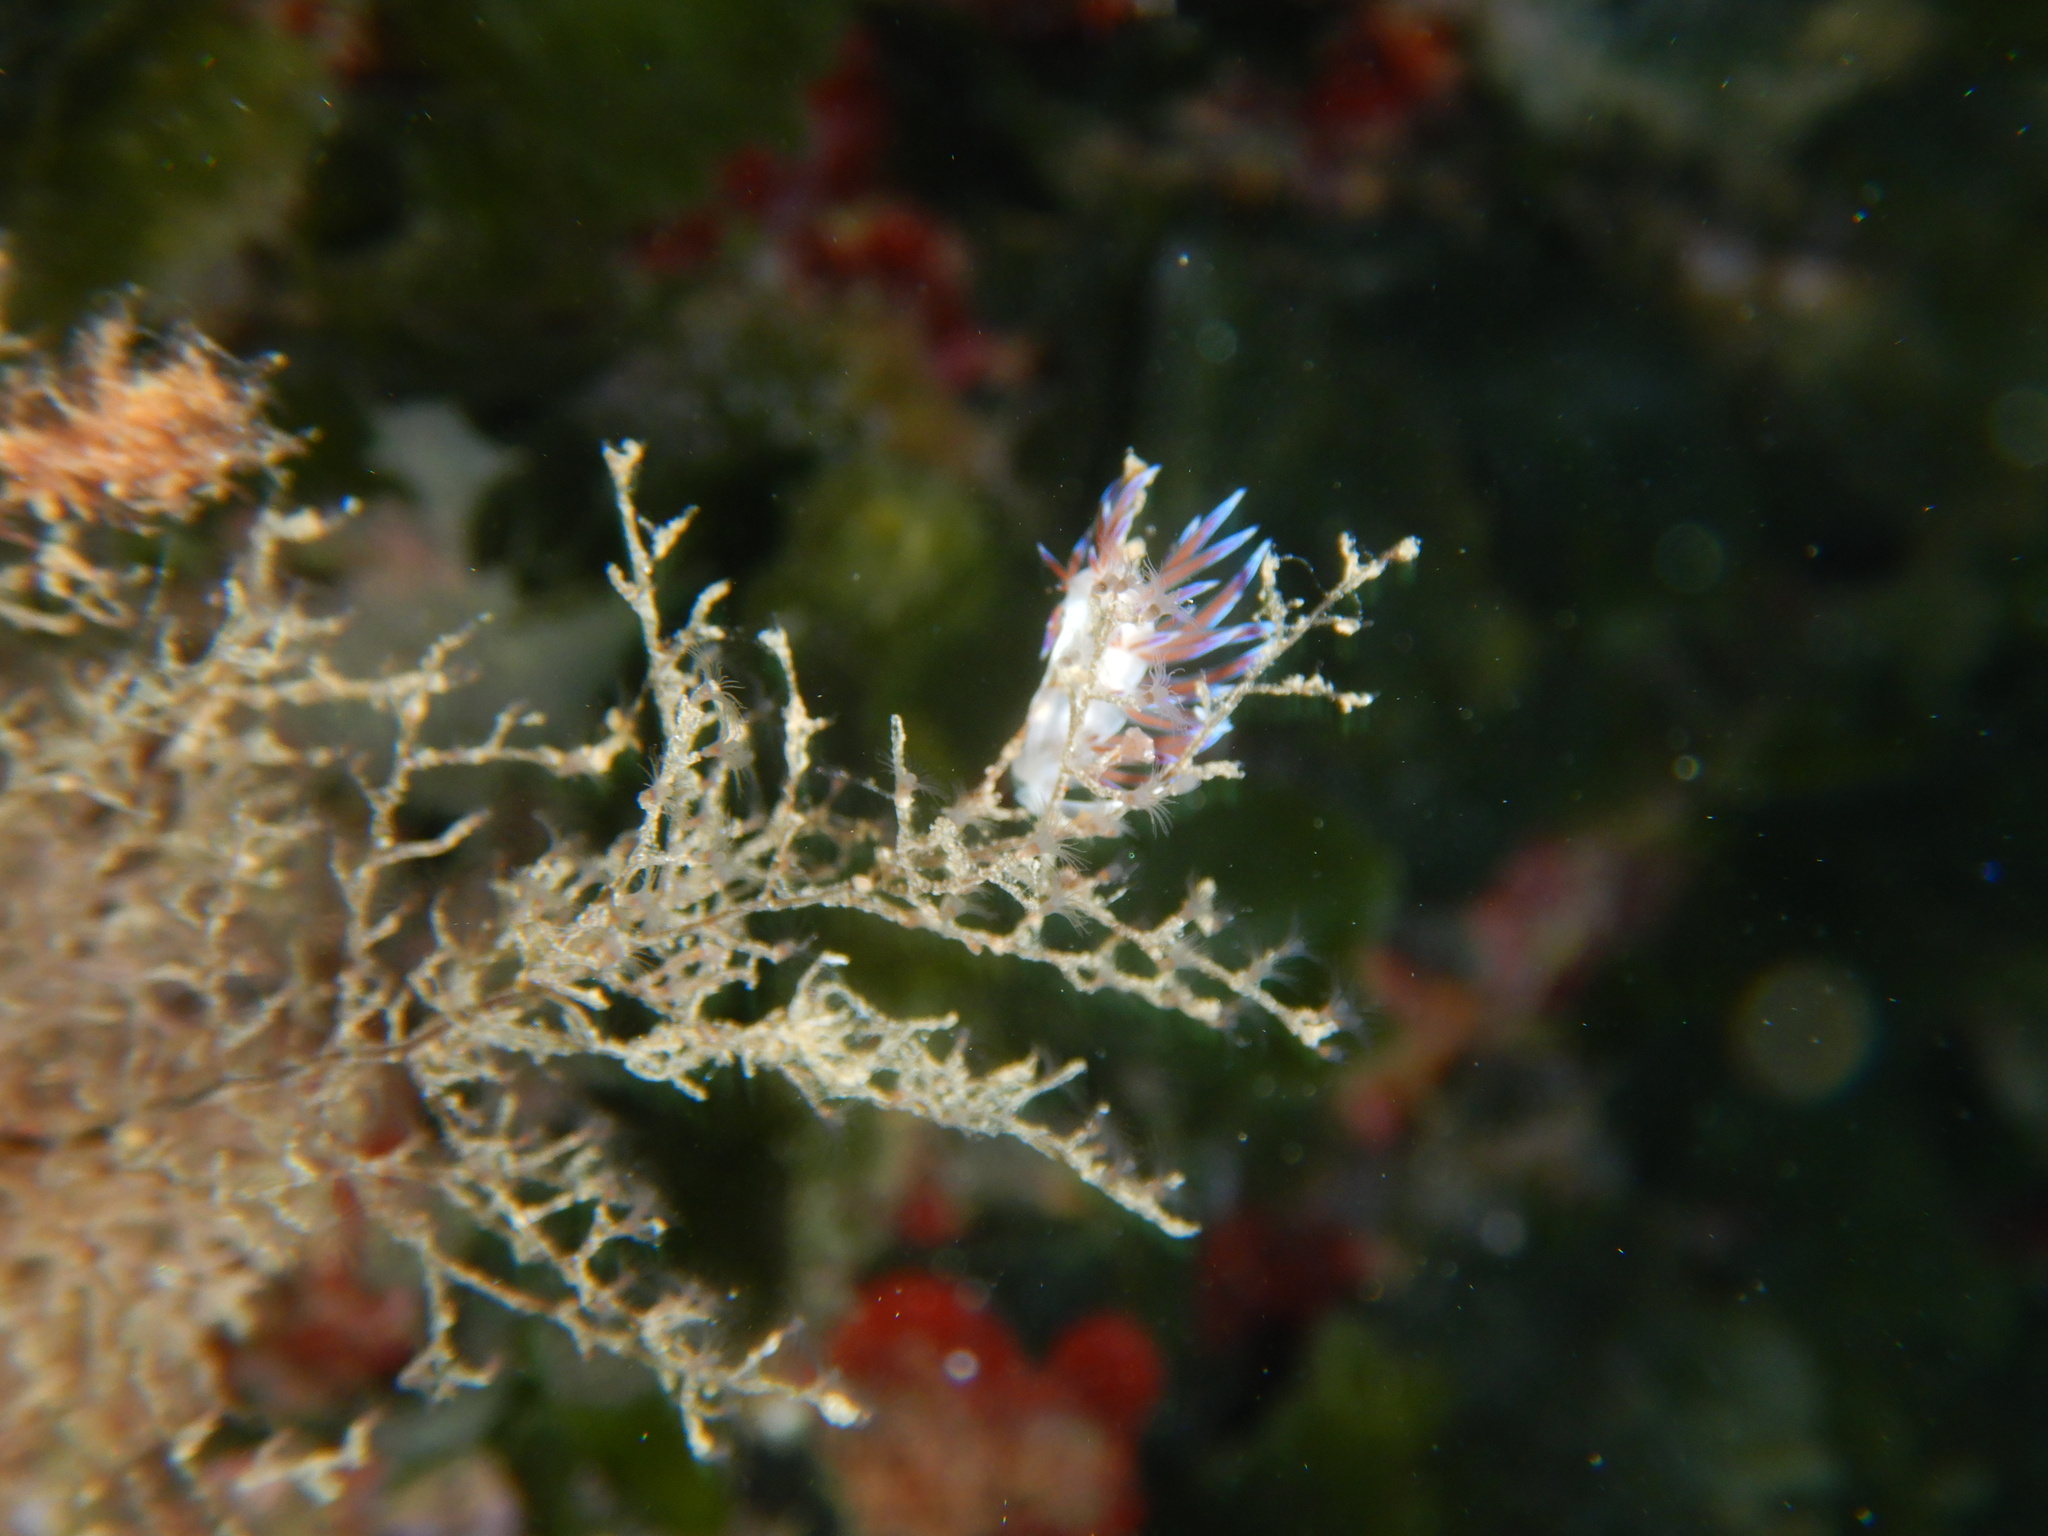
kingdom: Animalia
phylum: Mollusca
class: Gastropoda
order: Nudibranchia
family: Facelinidae
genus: Cratena
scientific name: Cratena peregrina
